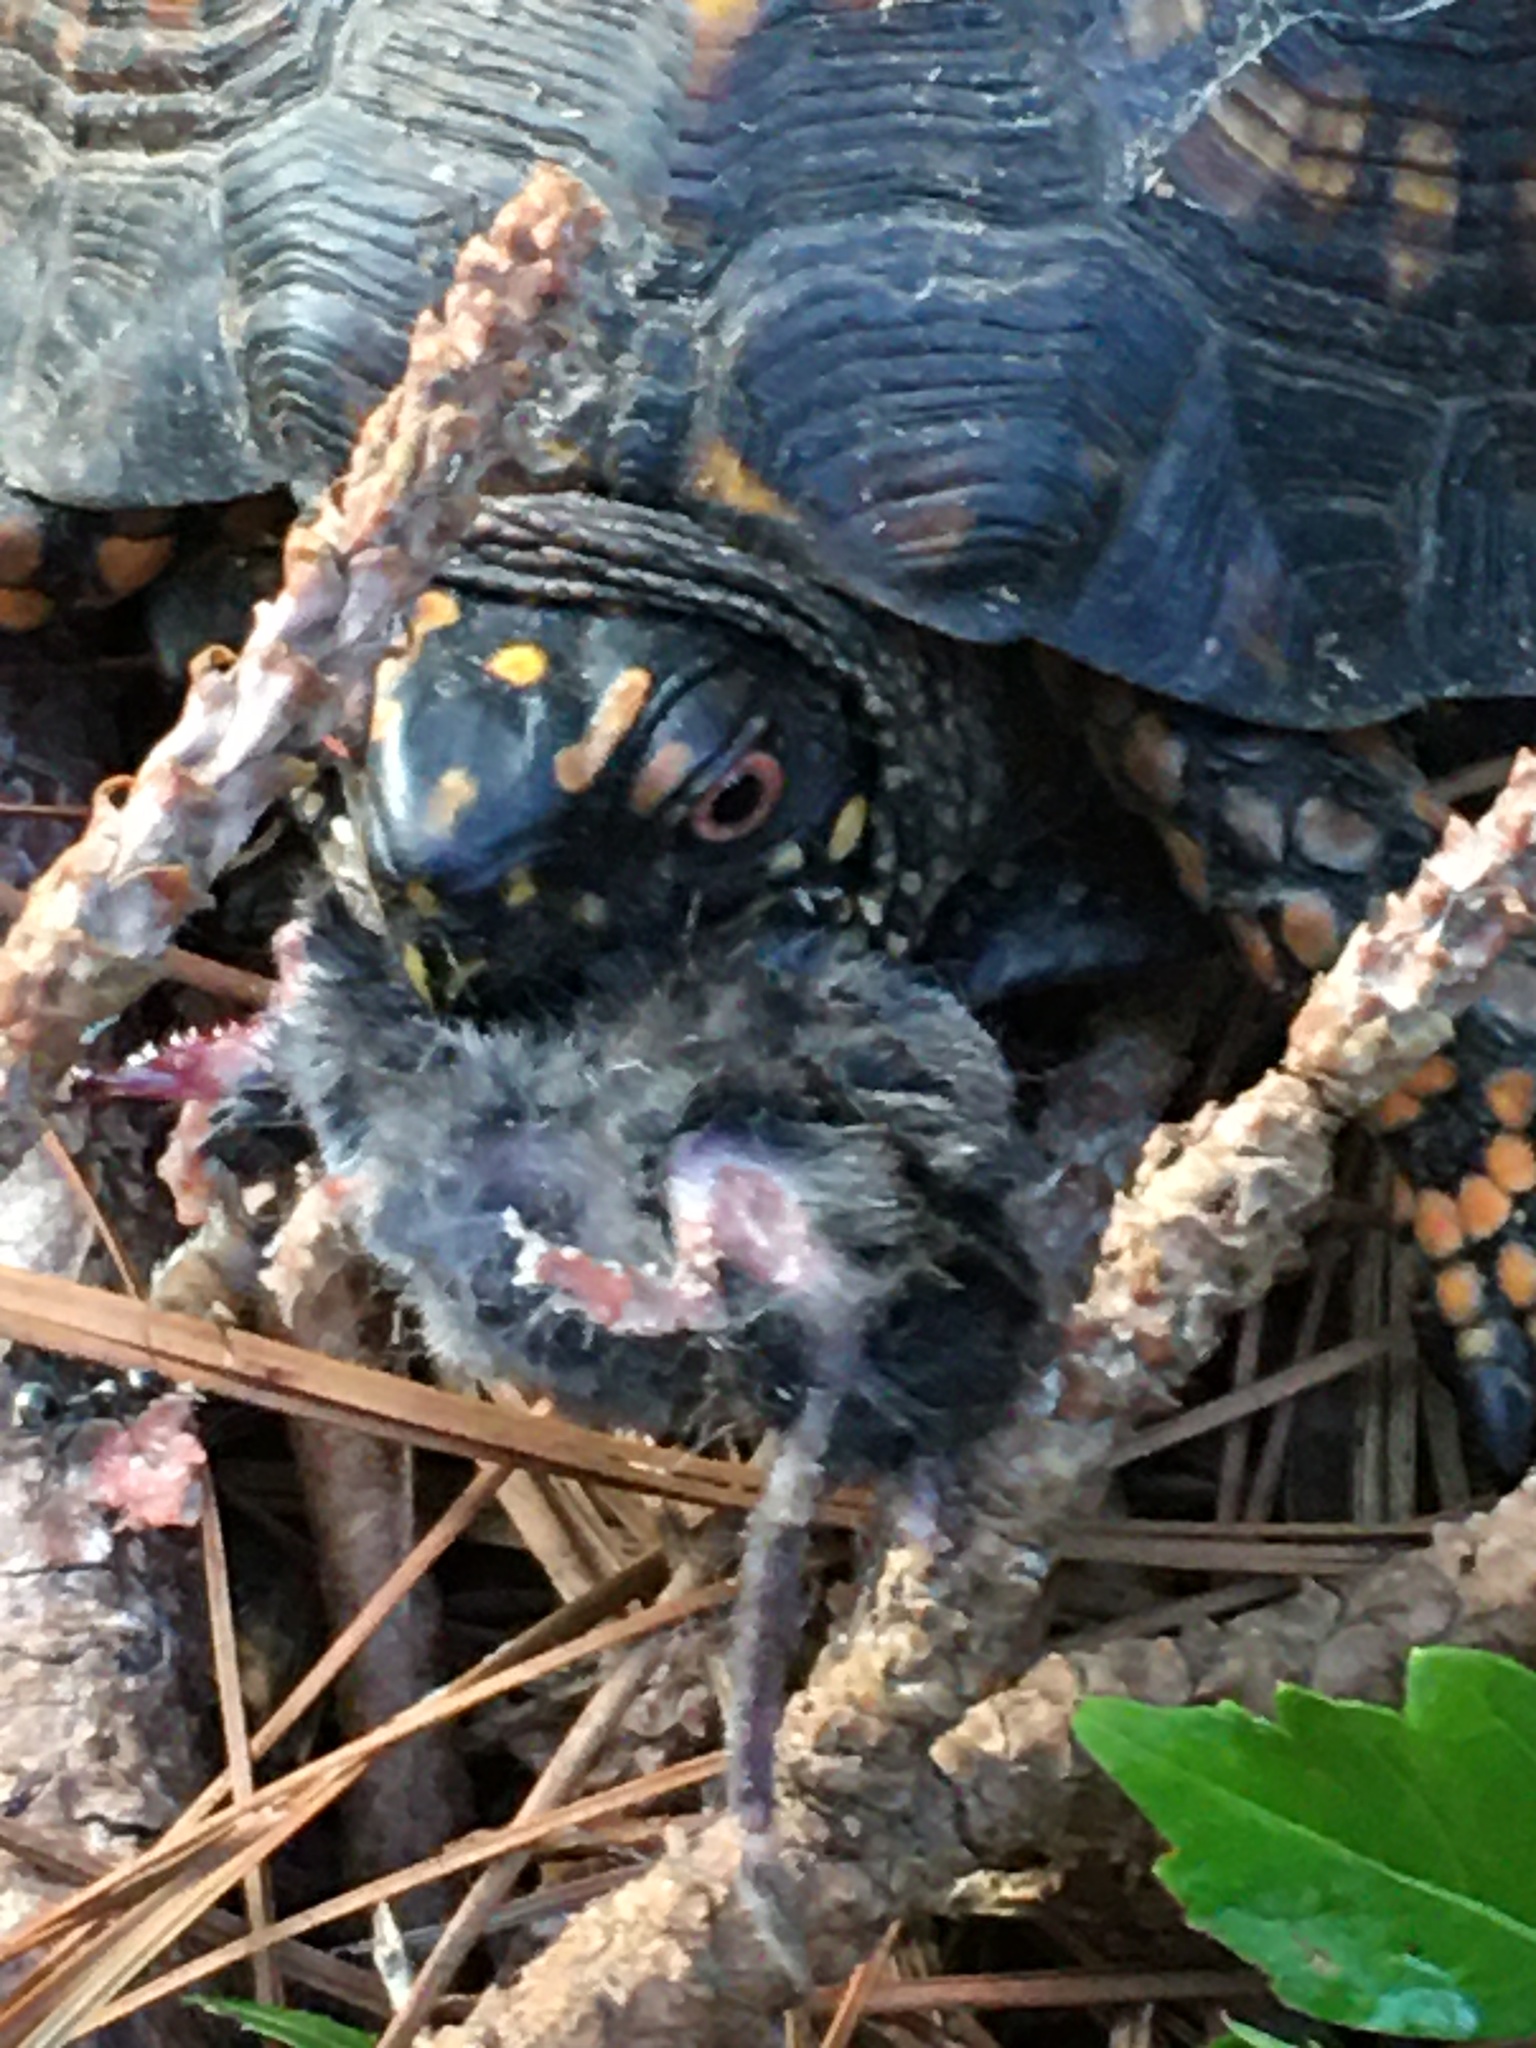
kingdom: Animalia
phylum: Chordata
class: Testudines
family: Emydidae
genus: Terrapene
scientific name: Terrapene carolina
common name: Common box turtle
